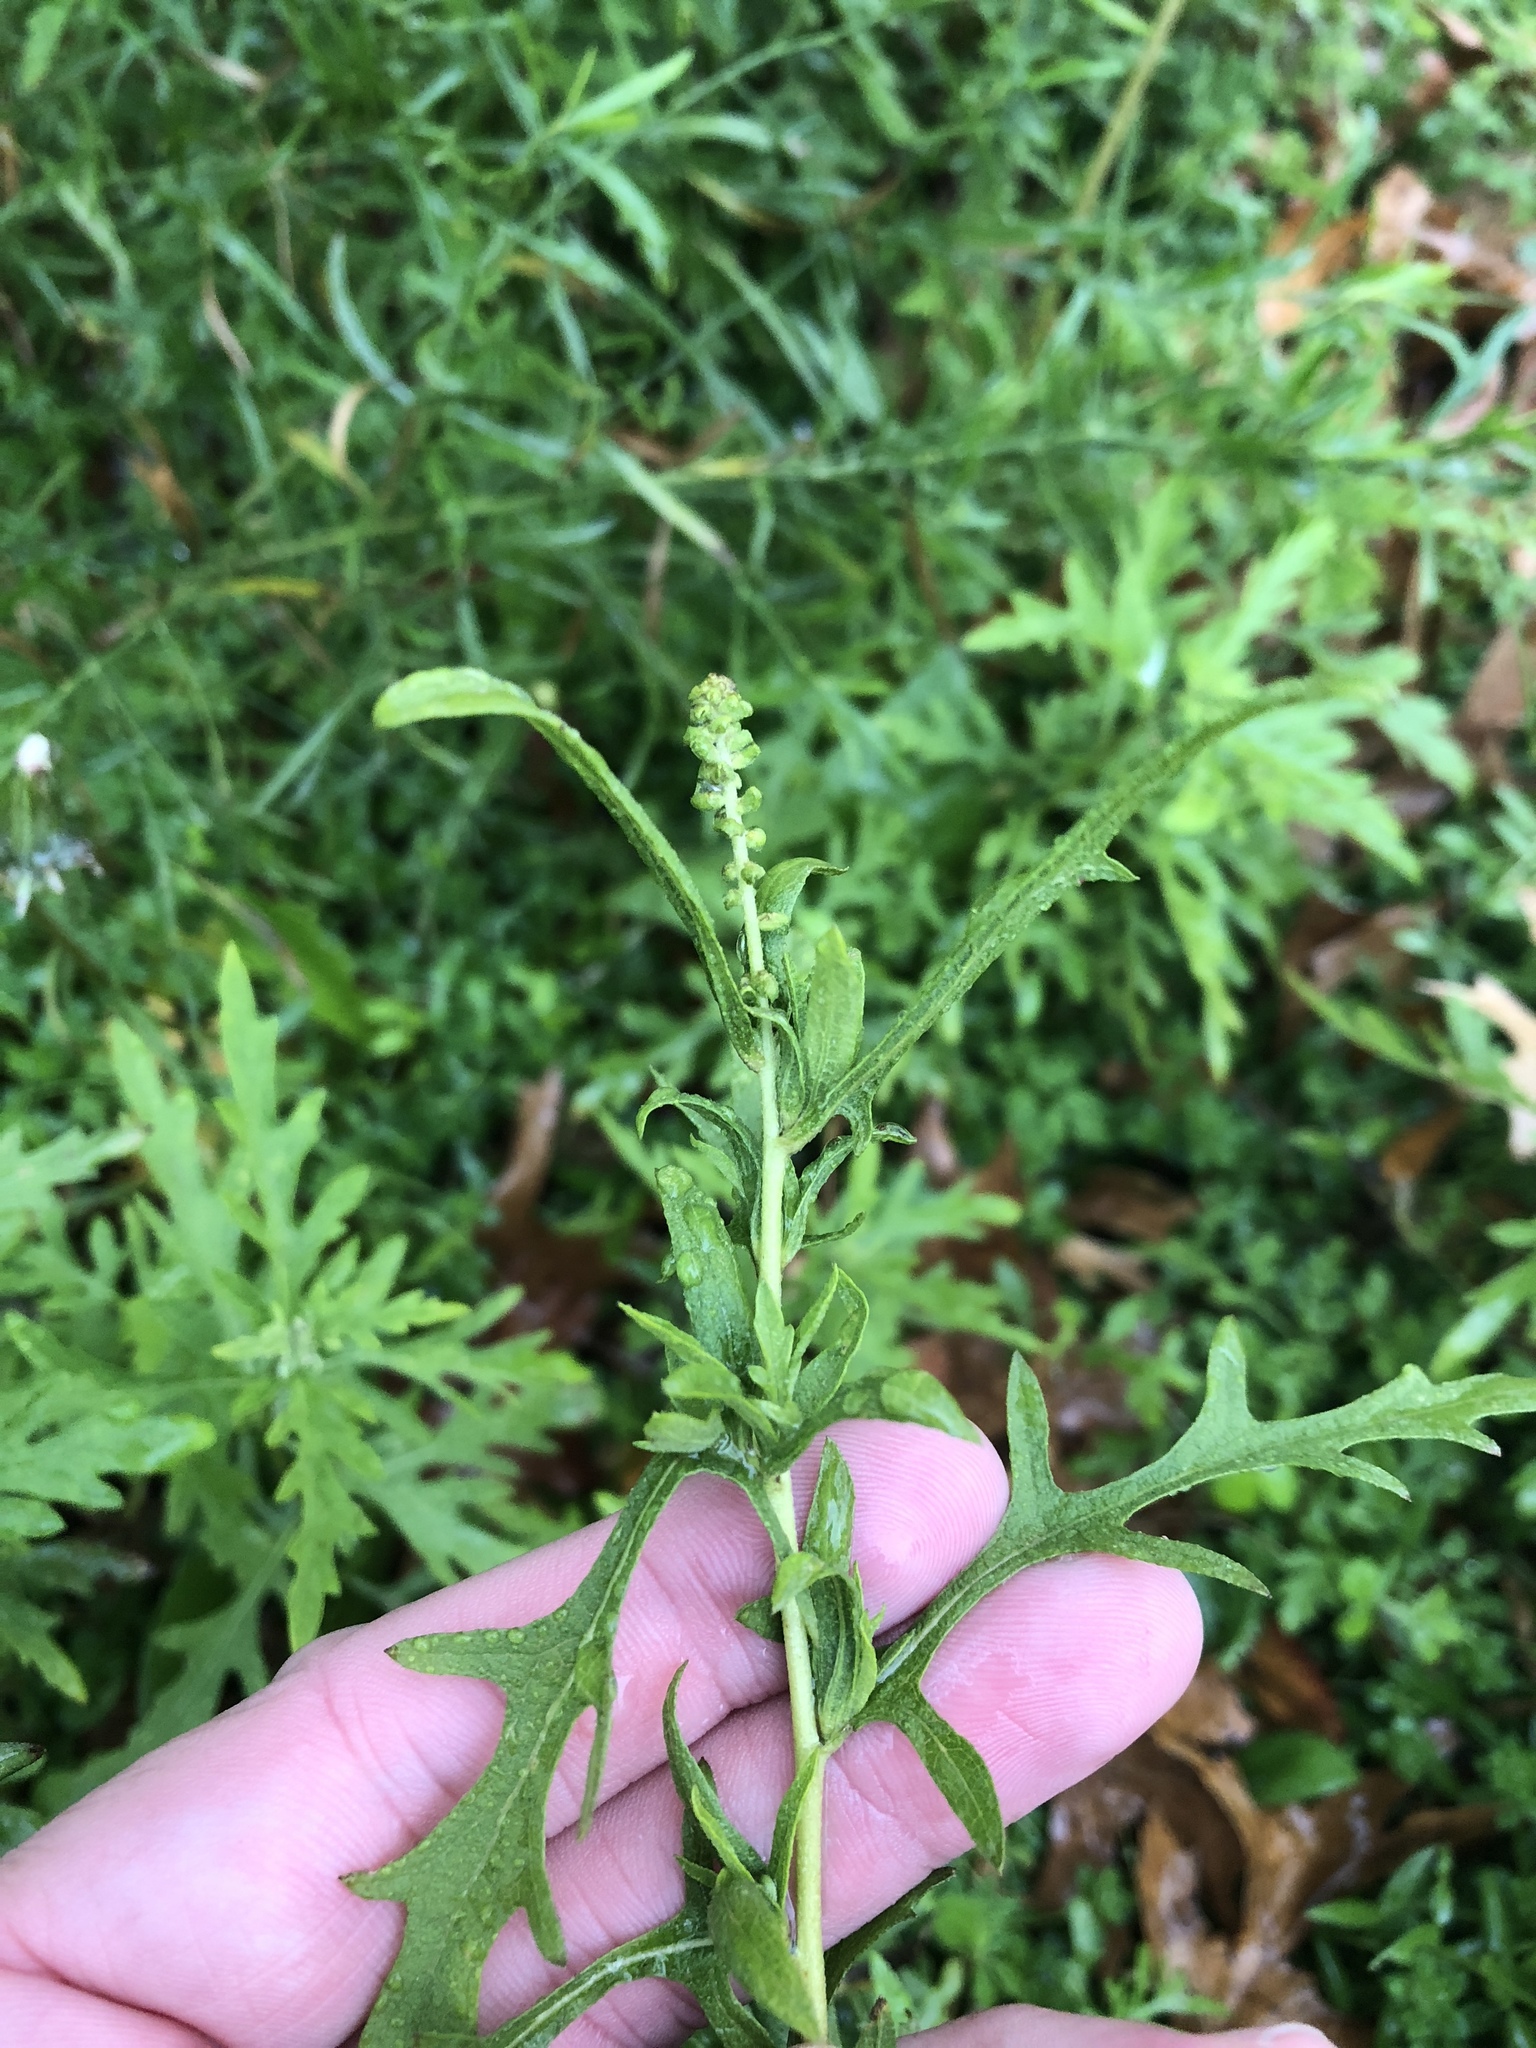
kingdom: Plantae
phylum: Tracheophyta
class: Magnoliopsida
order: Asterales
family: Asteraceae
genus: Ambrosia
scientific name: Ambrosia psilostachya
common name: Perennial ragweed
